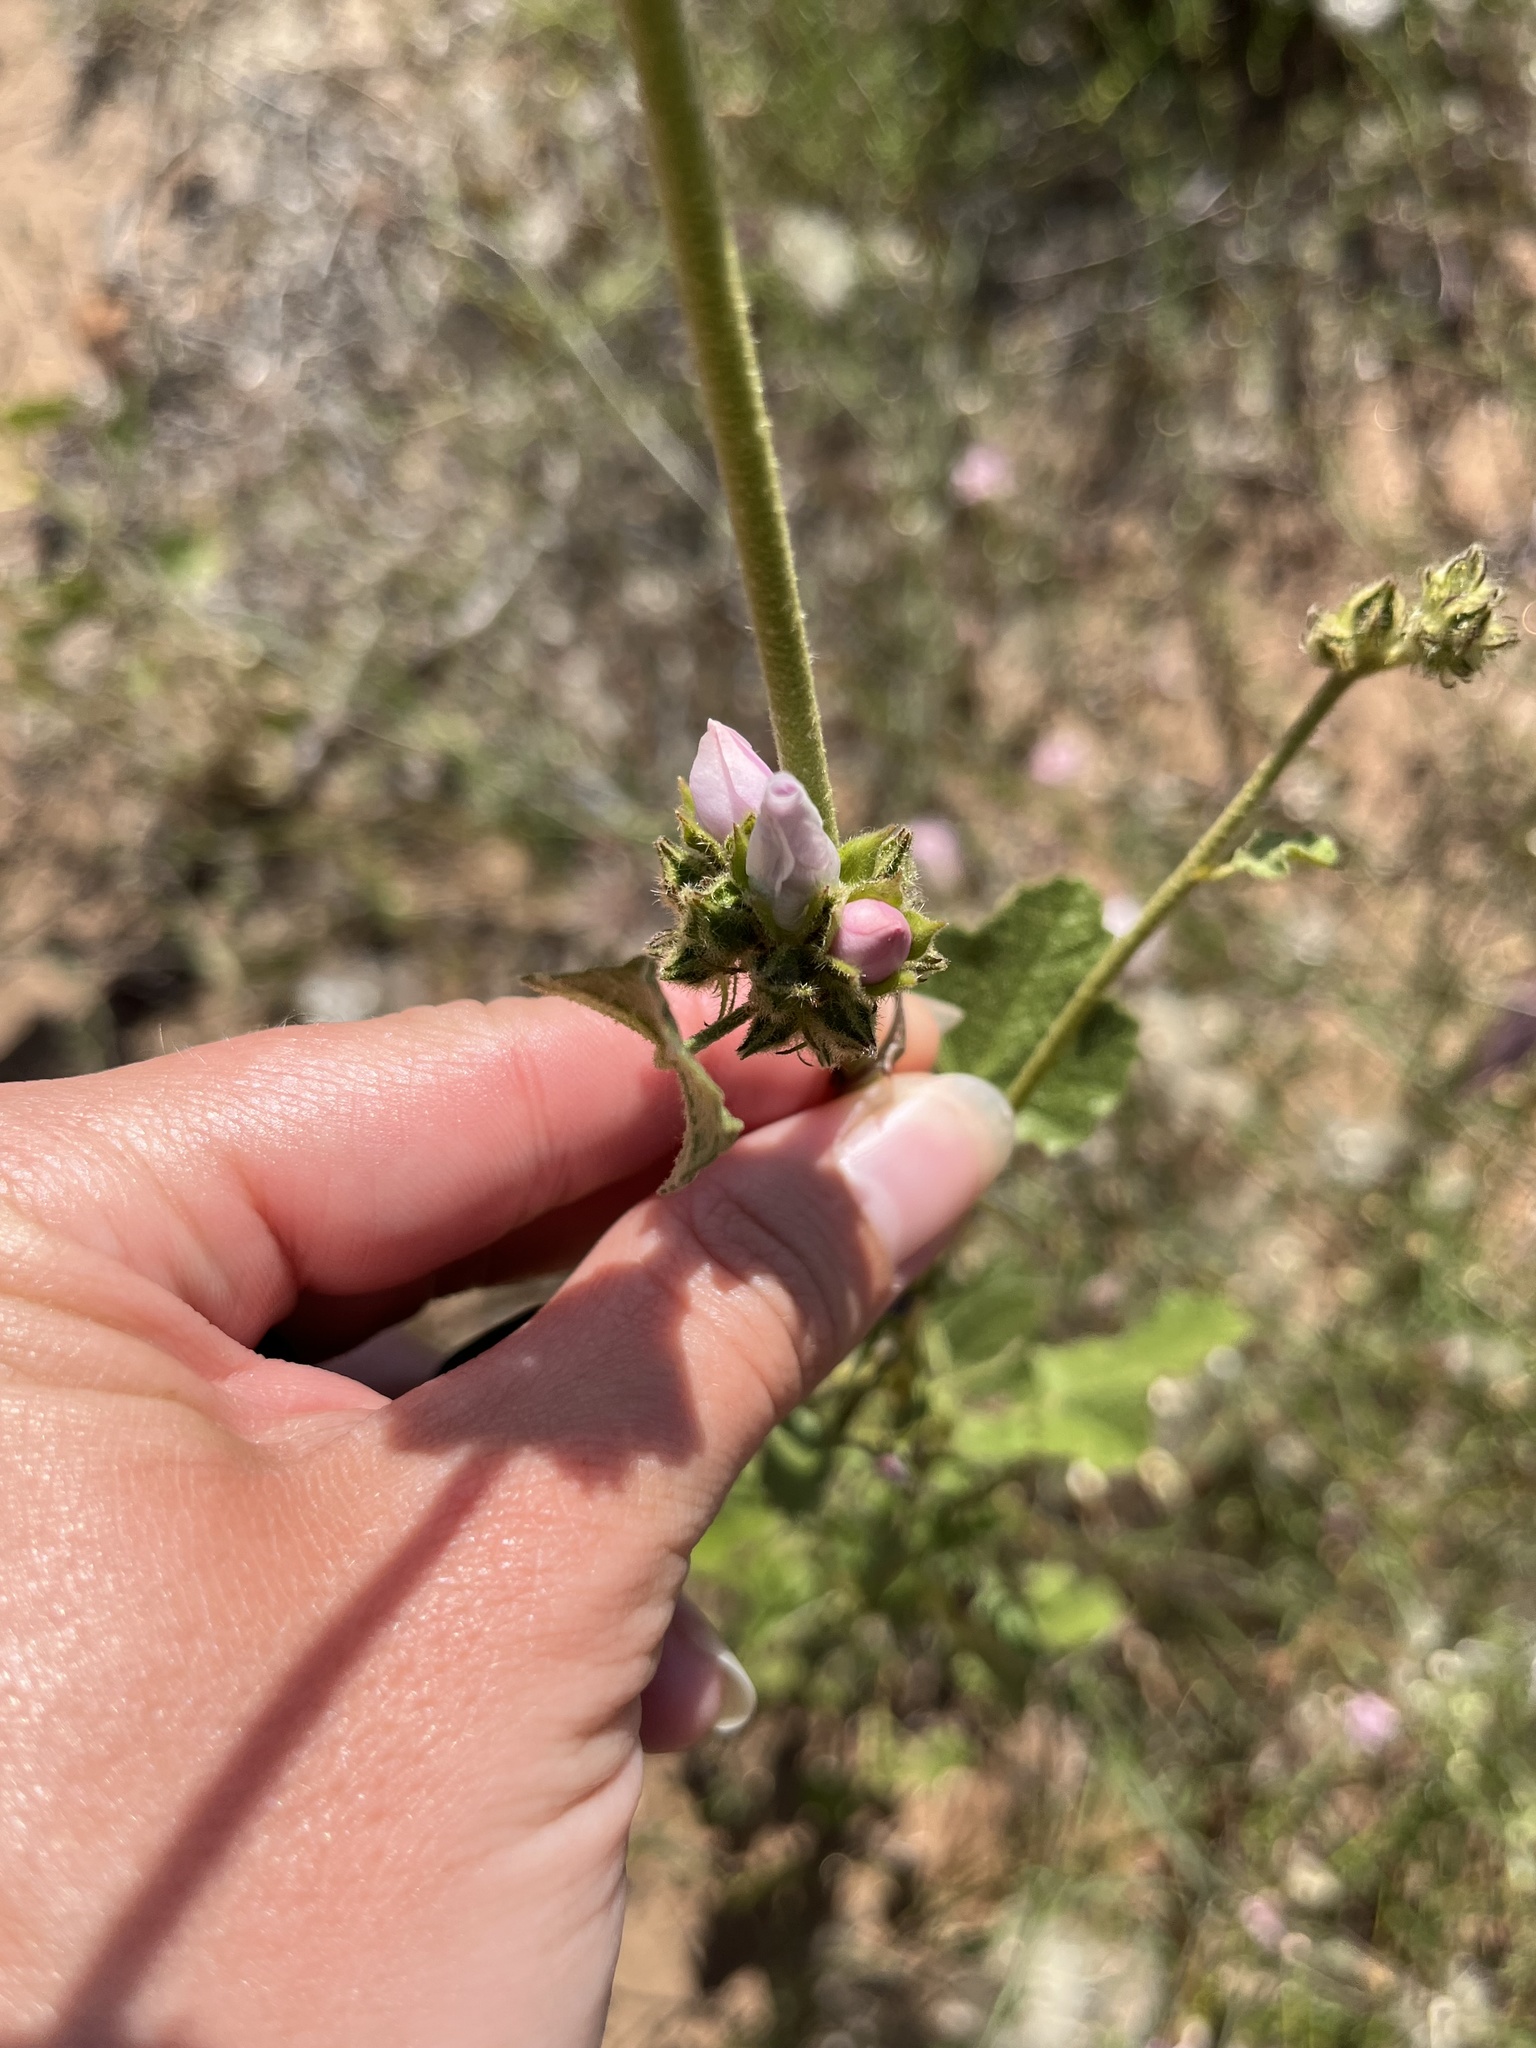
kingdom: Plantae
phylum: Tracheophyta
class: Magnoliopsida
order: Malvales
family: Malvaceae
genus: Malacothamnus
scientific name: Malacothamnus densiflorus
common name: Yellow-stem bush-mallow
